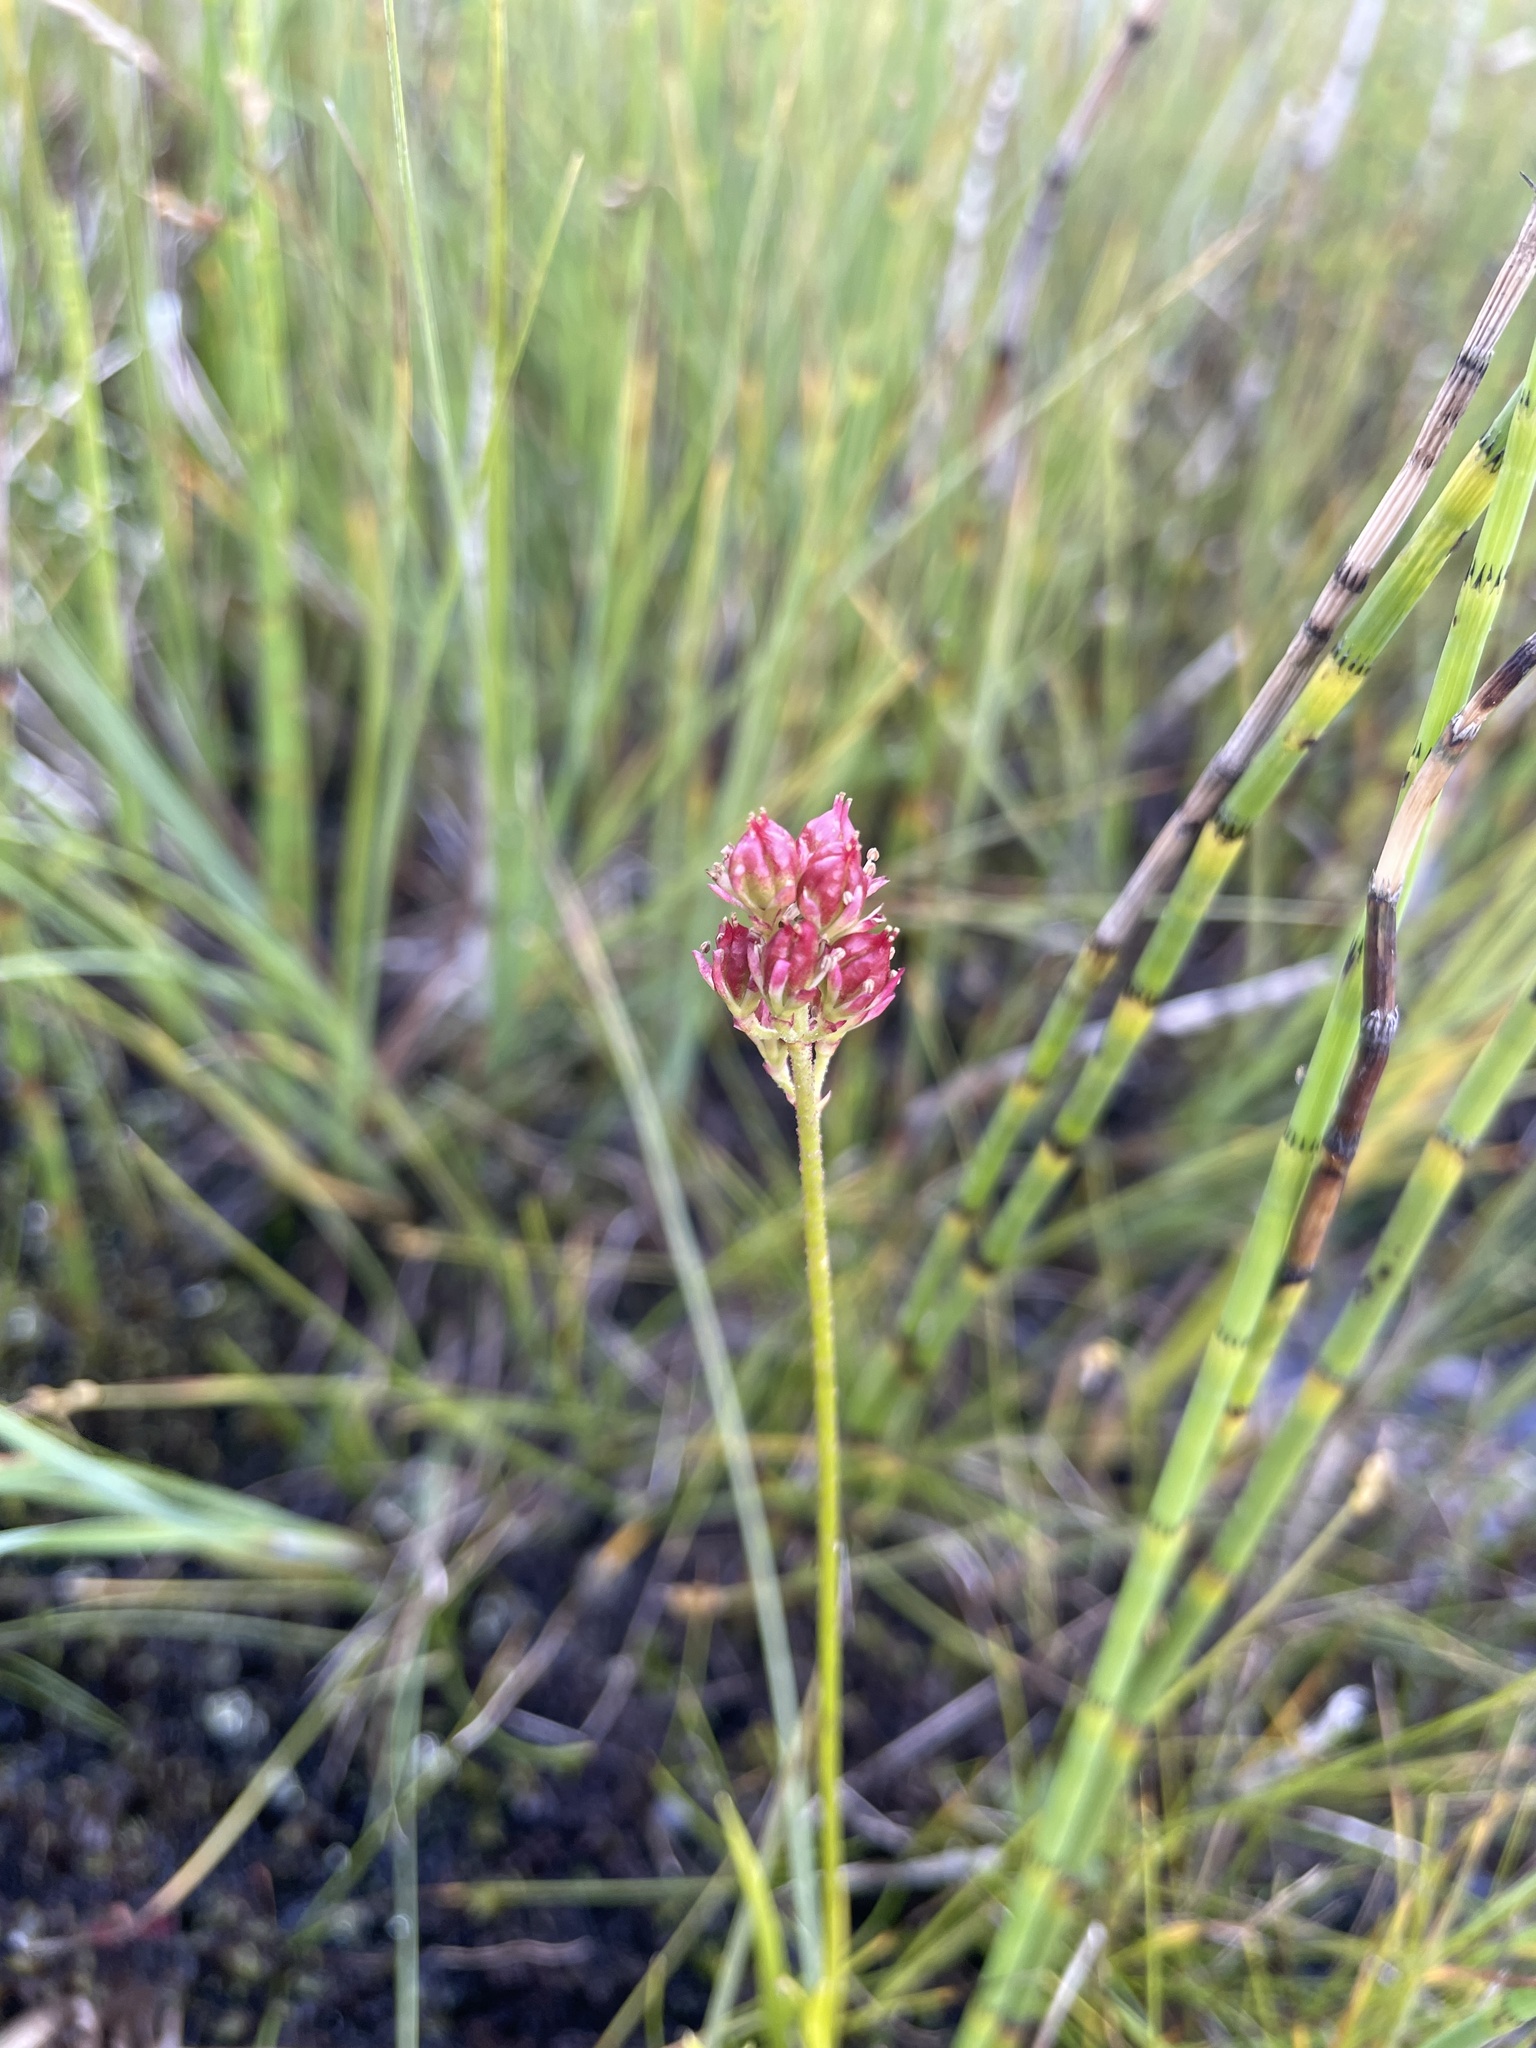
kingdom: Plantae
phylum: Tracheophyta
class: Liliopsida
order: Alismatales
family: Tofieldiaceae
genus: Triantha
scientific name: Triantha glutinosa
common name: Glutinous tofieldia
